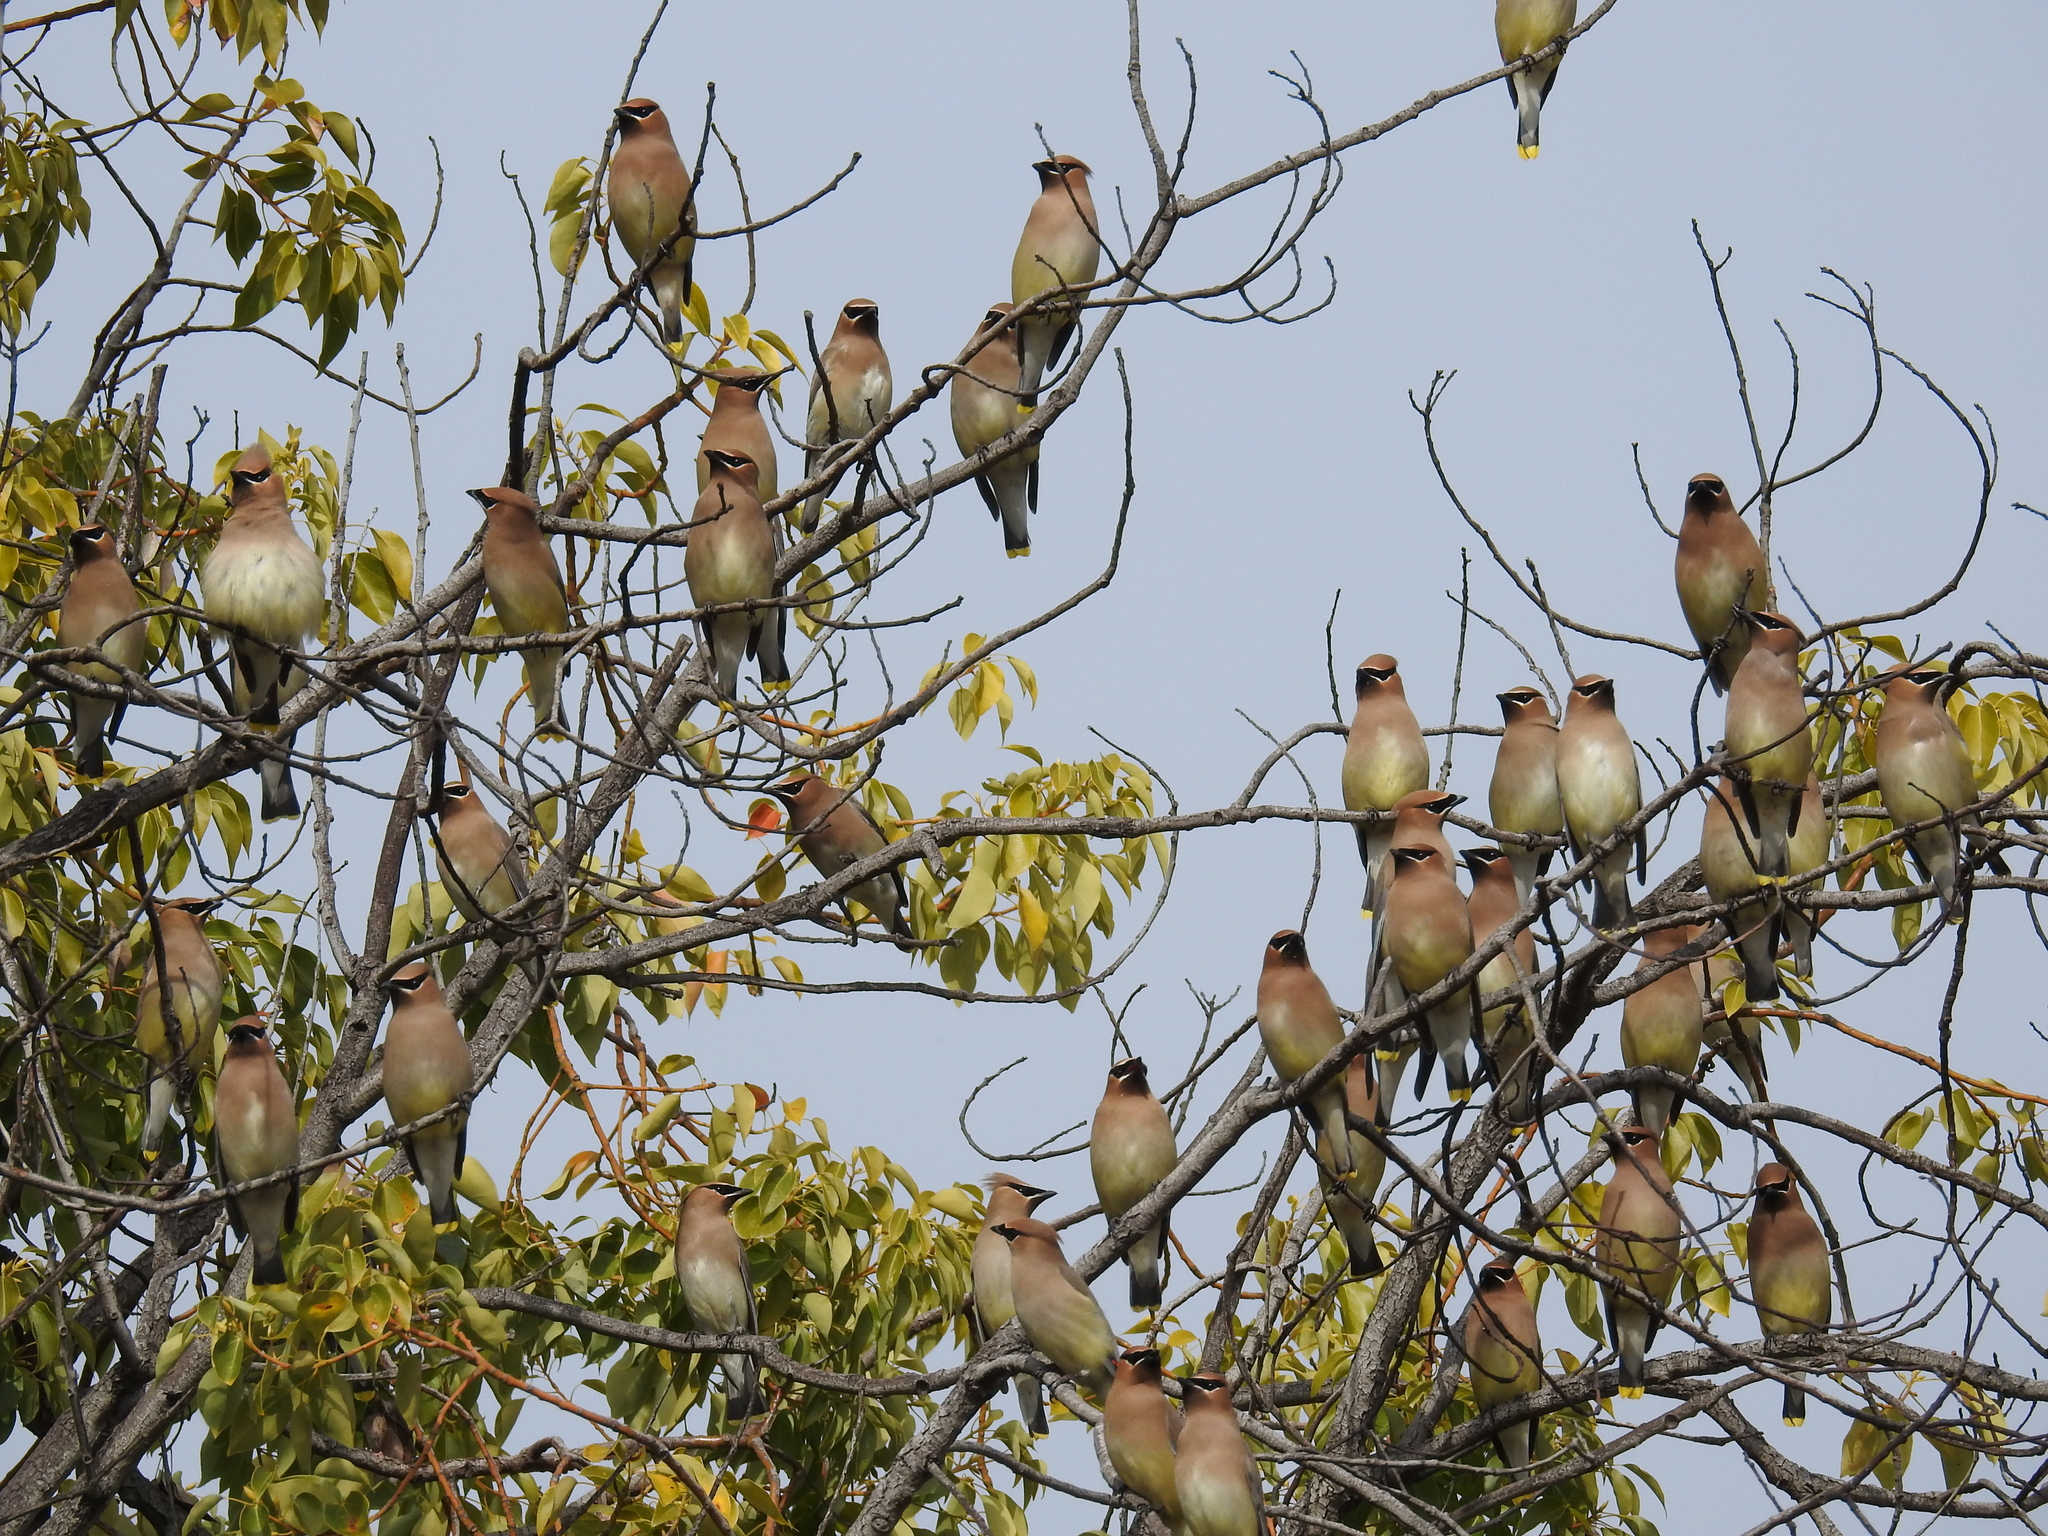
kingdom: Animalia
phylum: Chordata
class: Aves
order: Passeriformes
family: Bombycillidae
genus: Bombycilla
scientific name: Bombycilla cedrorum
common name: Cedar waxwing
